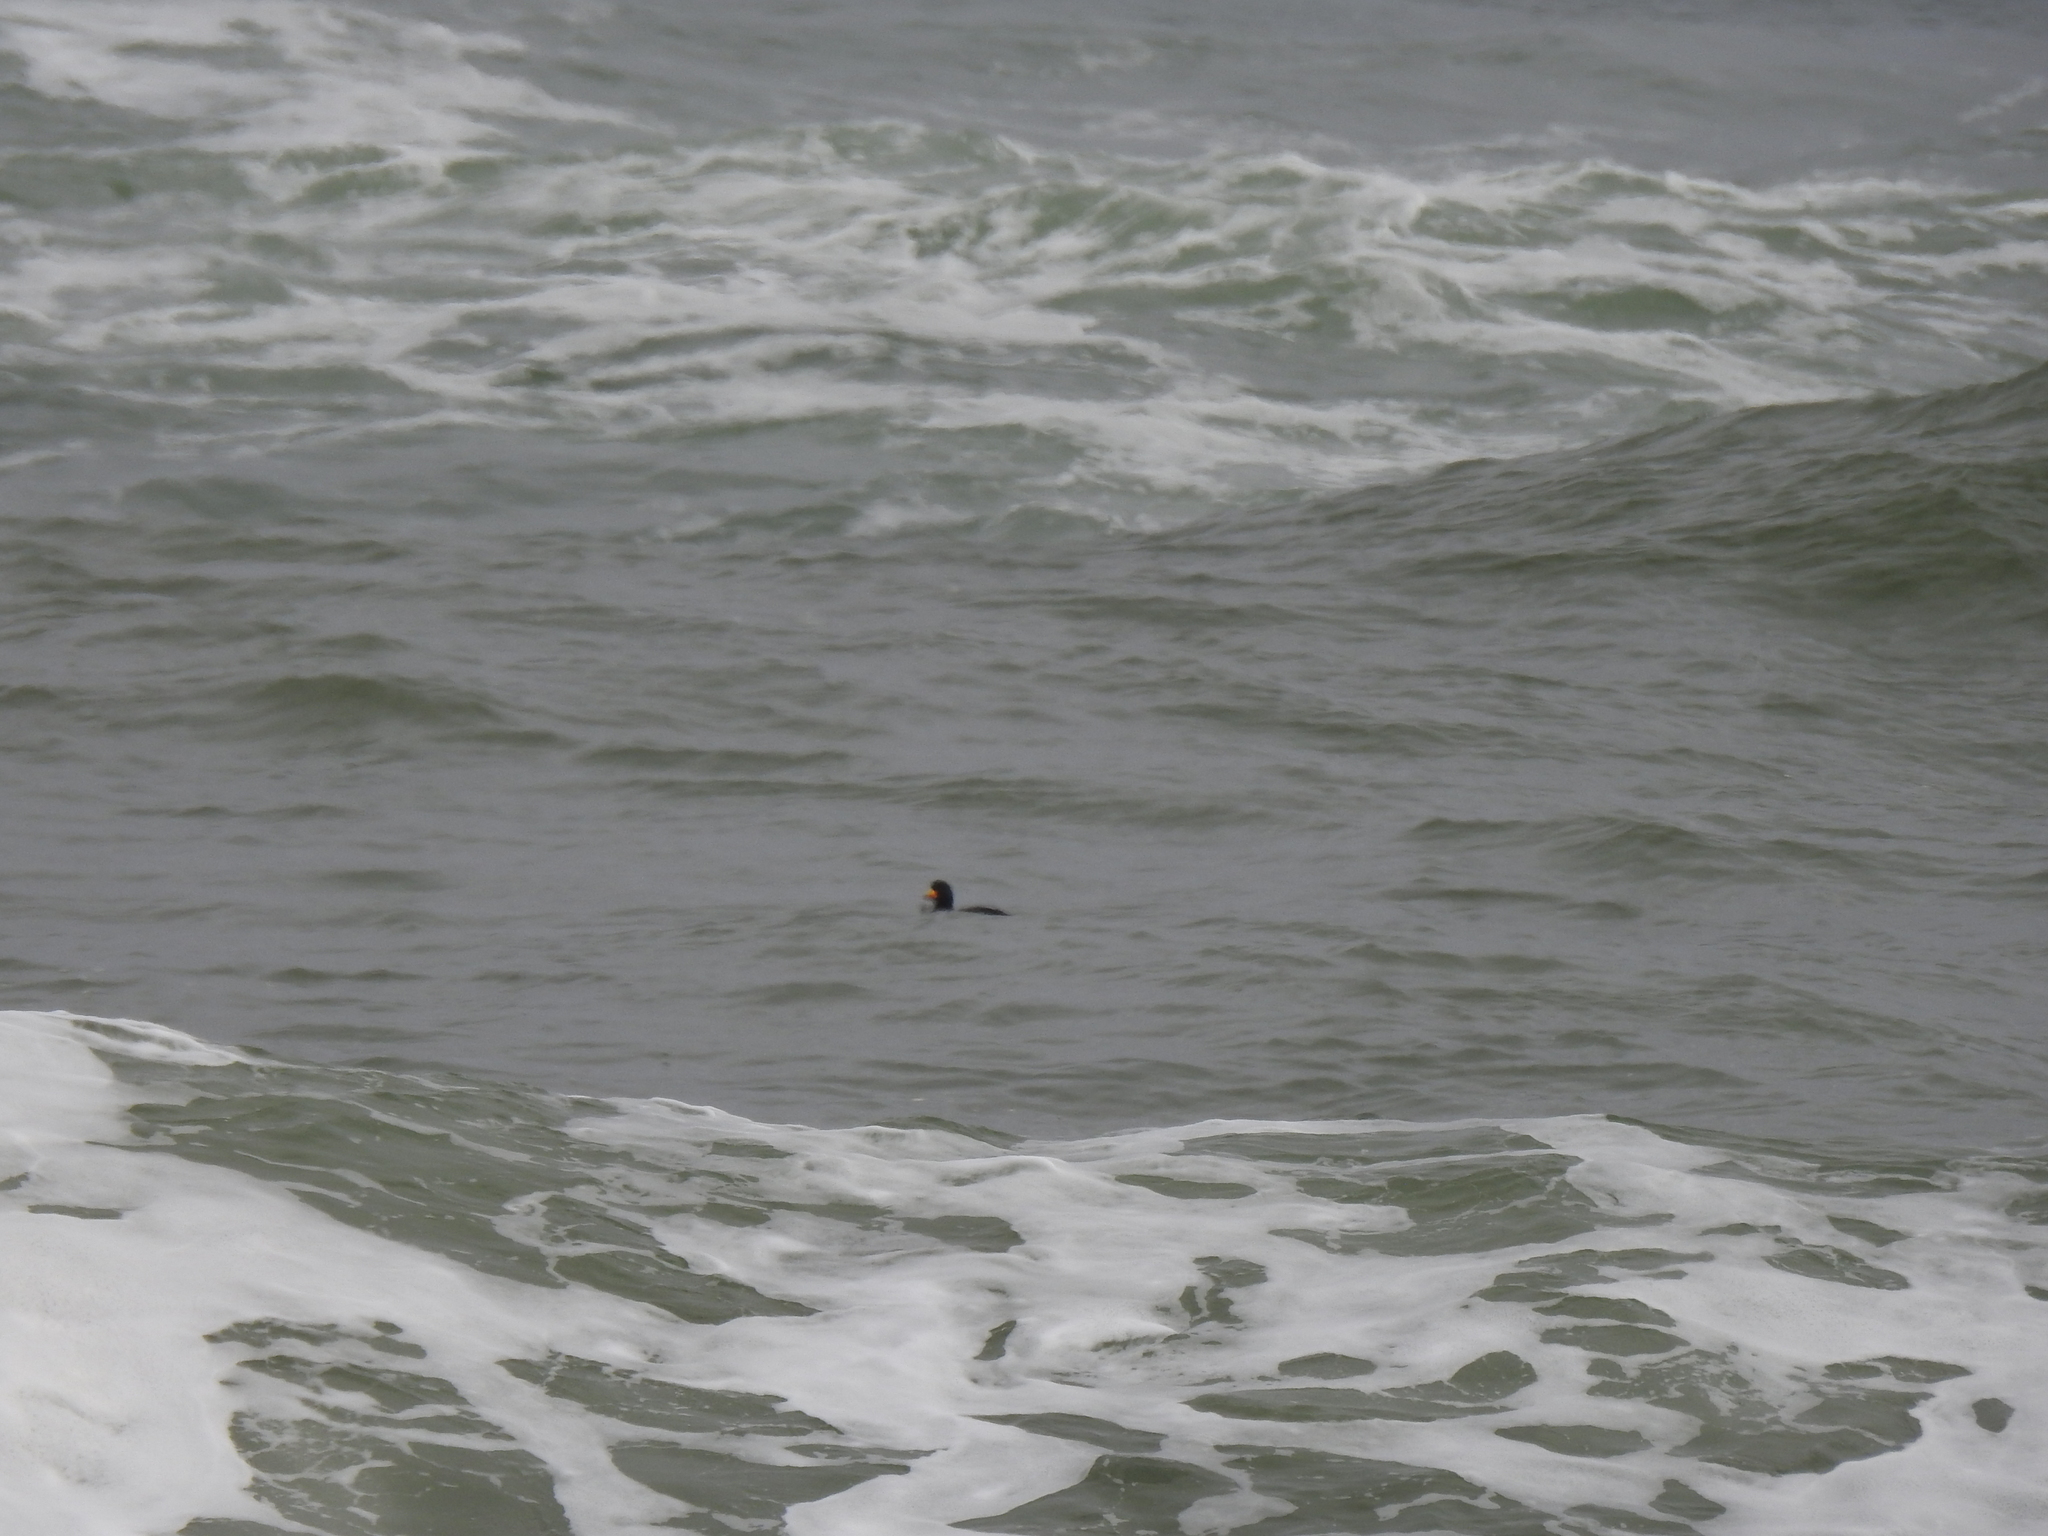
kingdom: Animalia
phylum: Chordata
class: Aves
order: Anseriformes
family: Anatidae
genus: Melanitta
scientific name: Melanitta americana
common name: Black scoter
